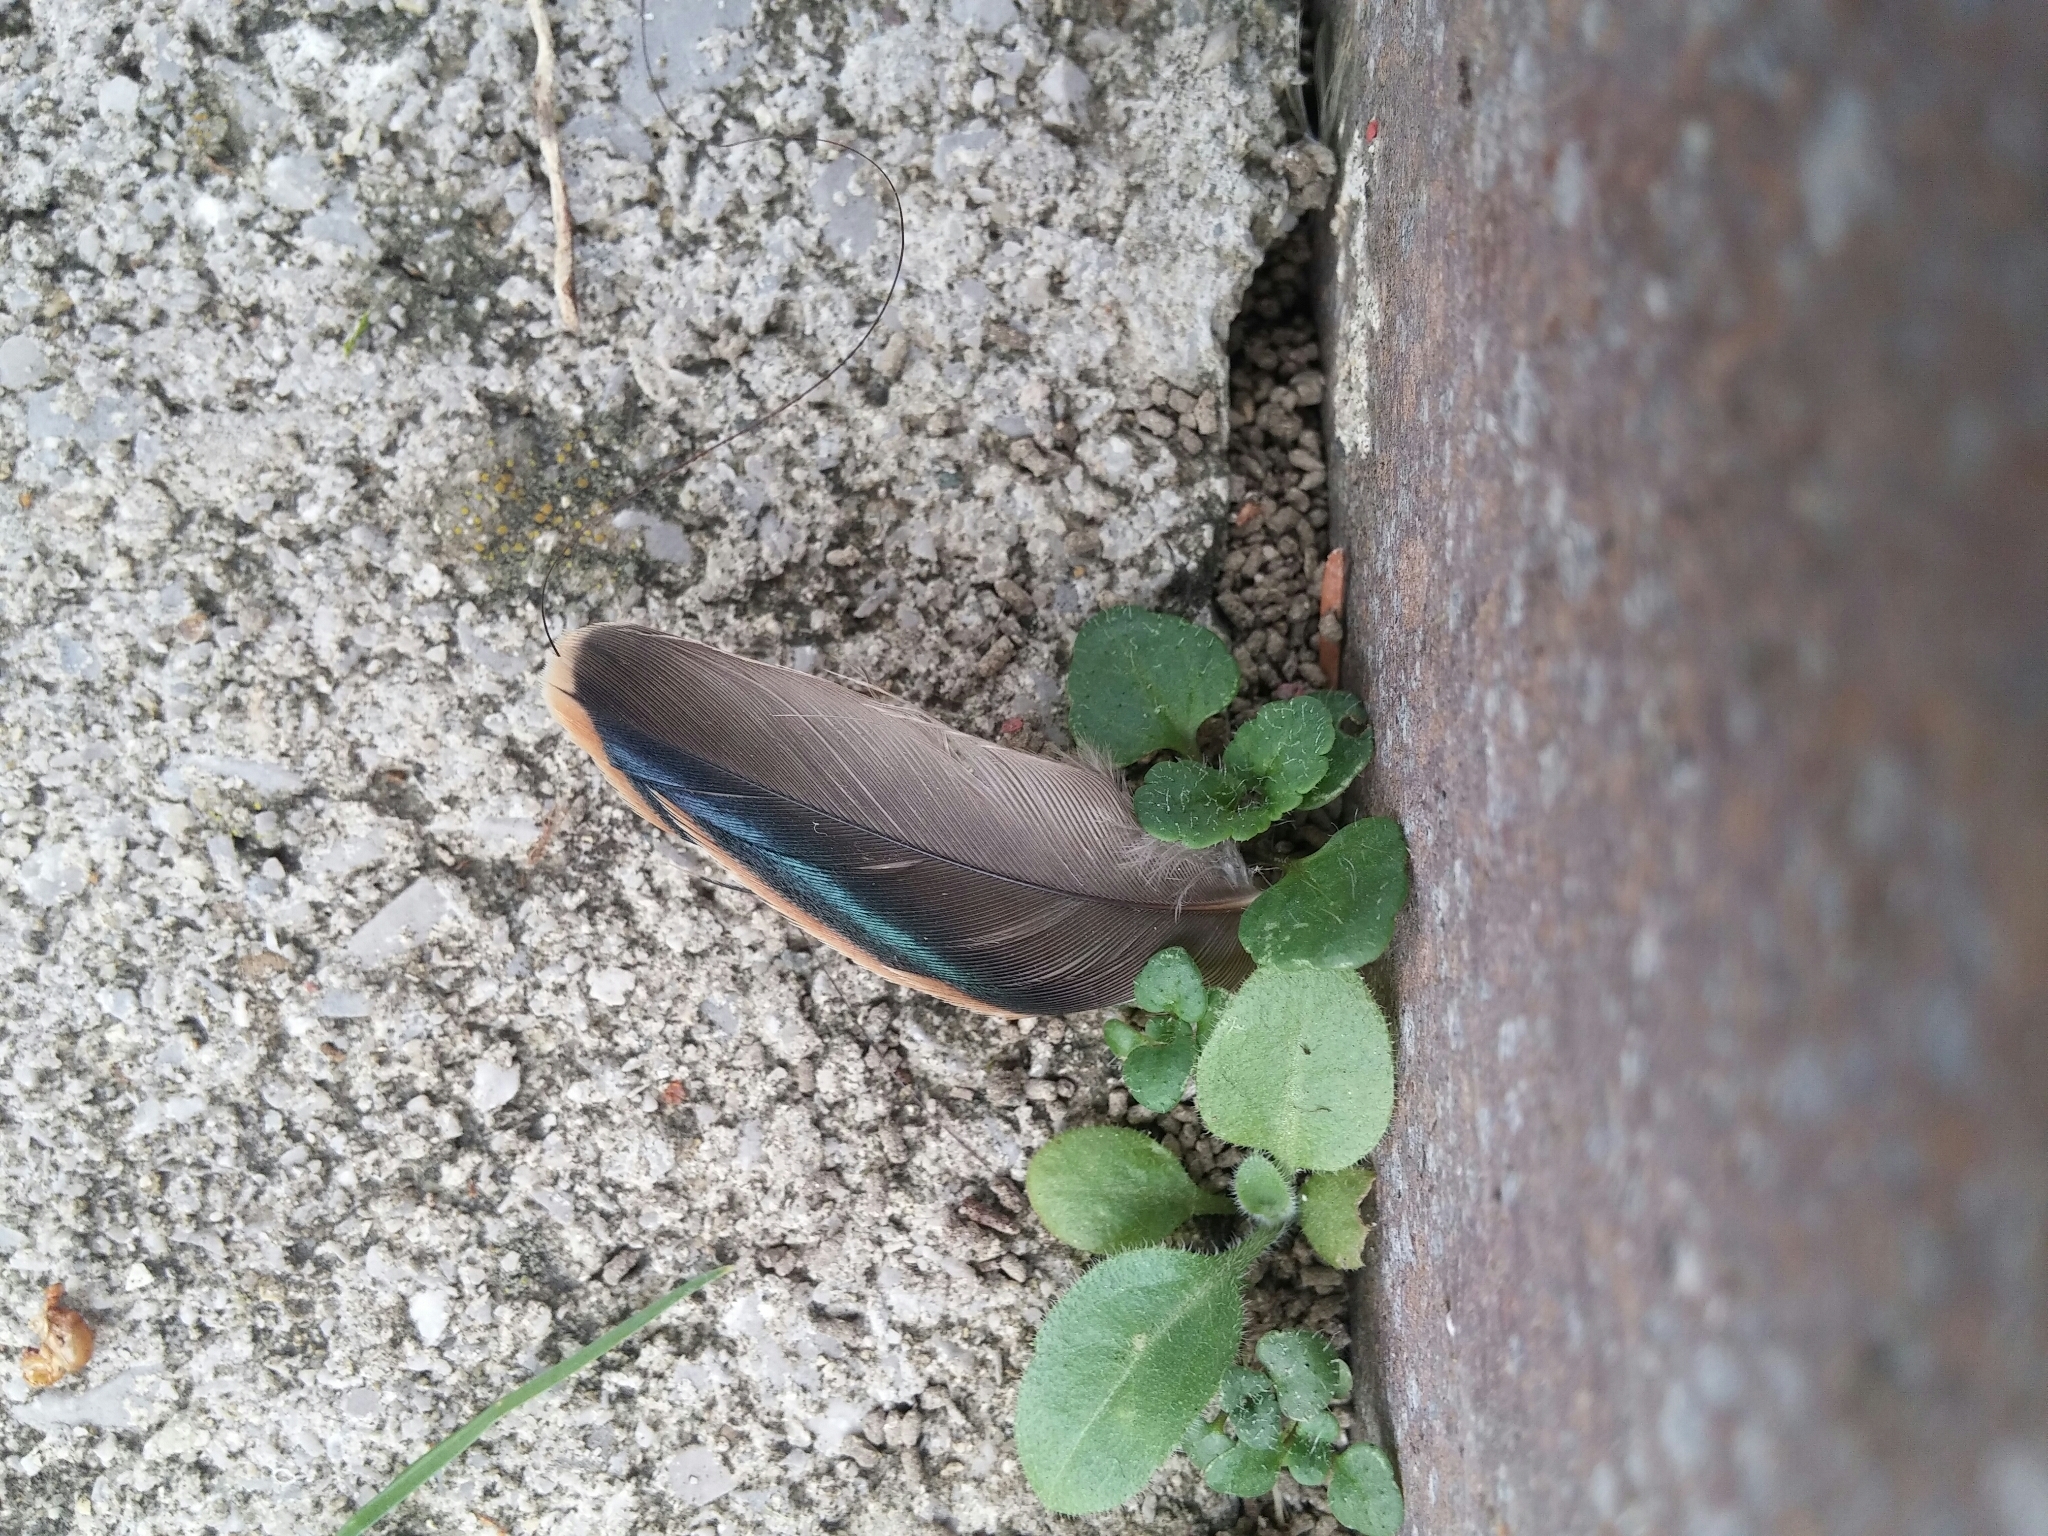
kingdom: Animalia
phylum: Chordata
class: Aves
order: Passeriformes
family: Sturnidae
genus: Sturnus
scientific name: Sturnus vulgaris
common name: Common starling
